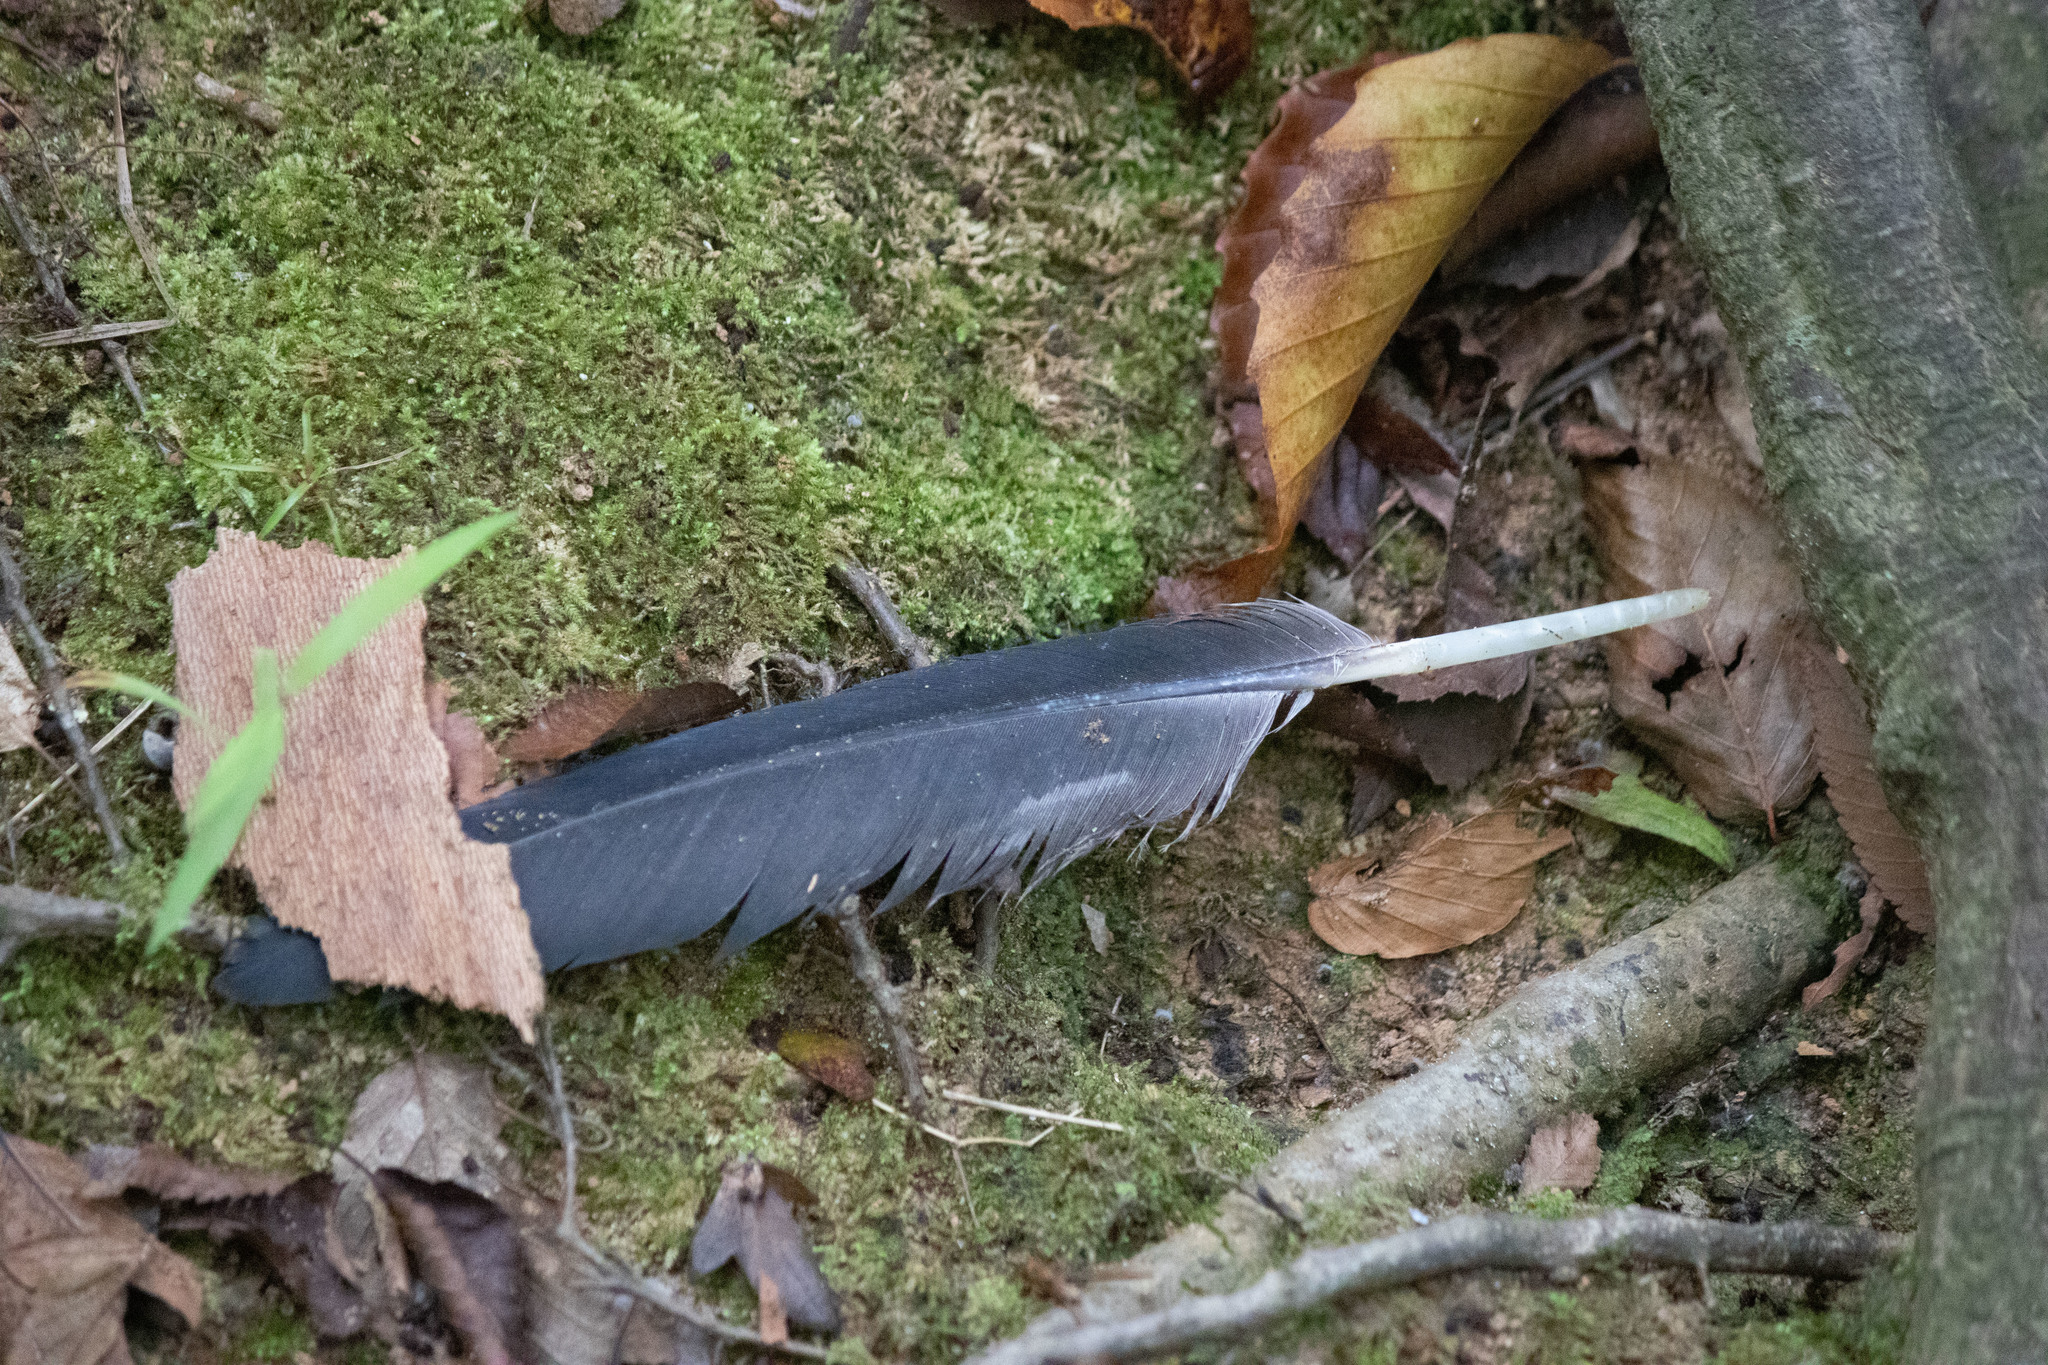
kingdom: Animalia
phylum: Chordata
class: Aves
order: Pelecaniformes
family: Ardeidae
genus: Ardea
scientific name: Ardea herodias
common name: Great blue heron
